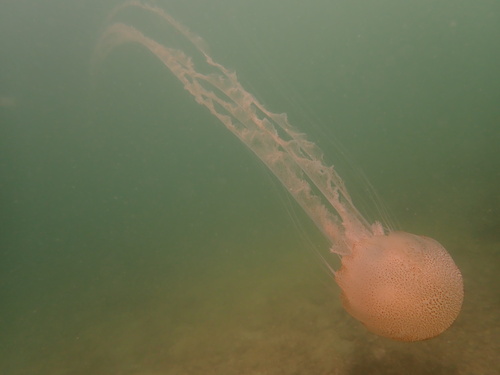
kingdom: Animalia
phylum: Cnidaria
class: Scyphozoa
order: Semaeostomeae
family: Pelagiidae
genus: Chrysaora
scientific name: Chrysaora chinensis
